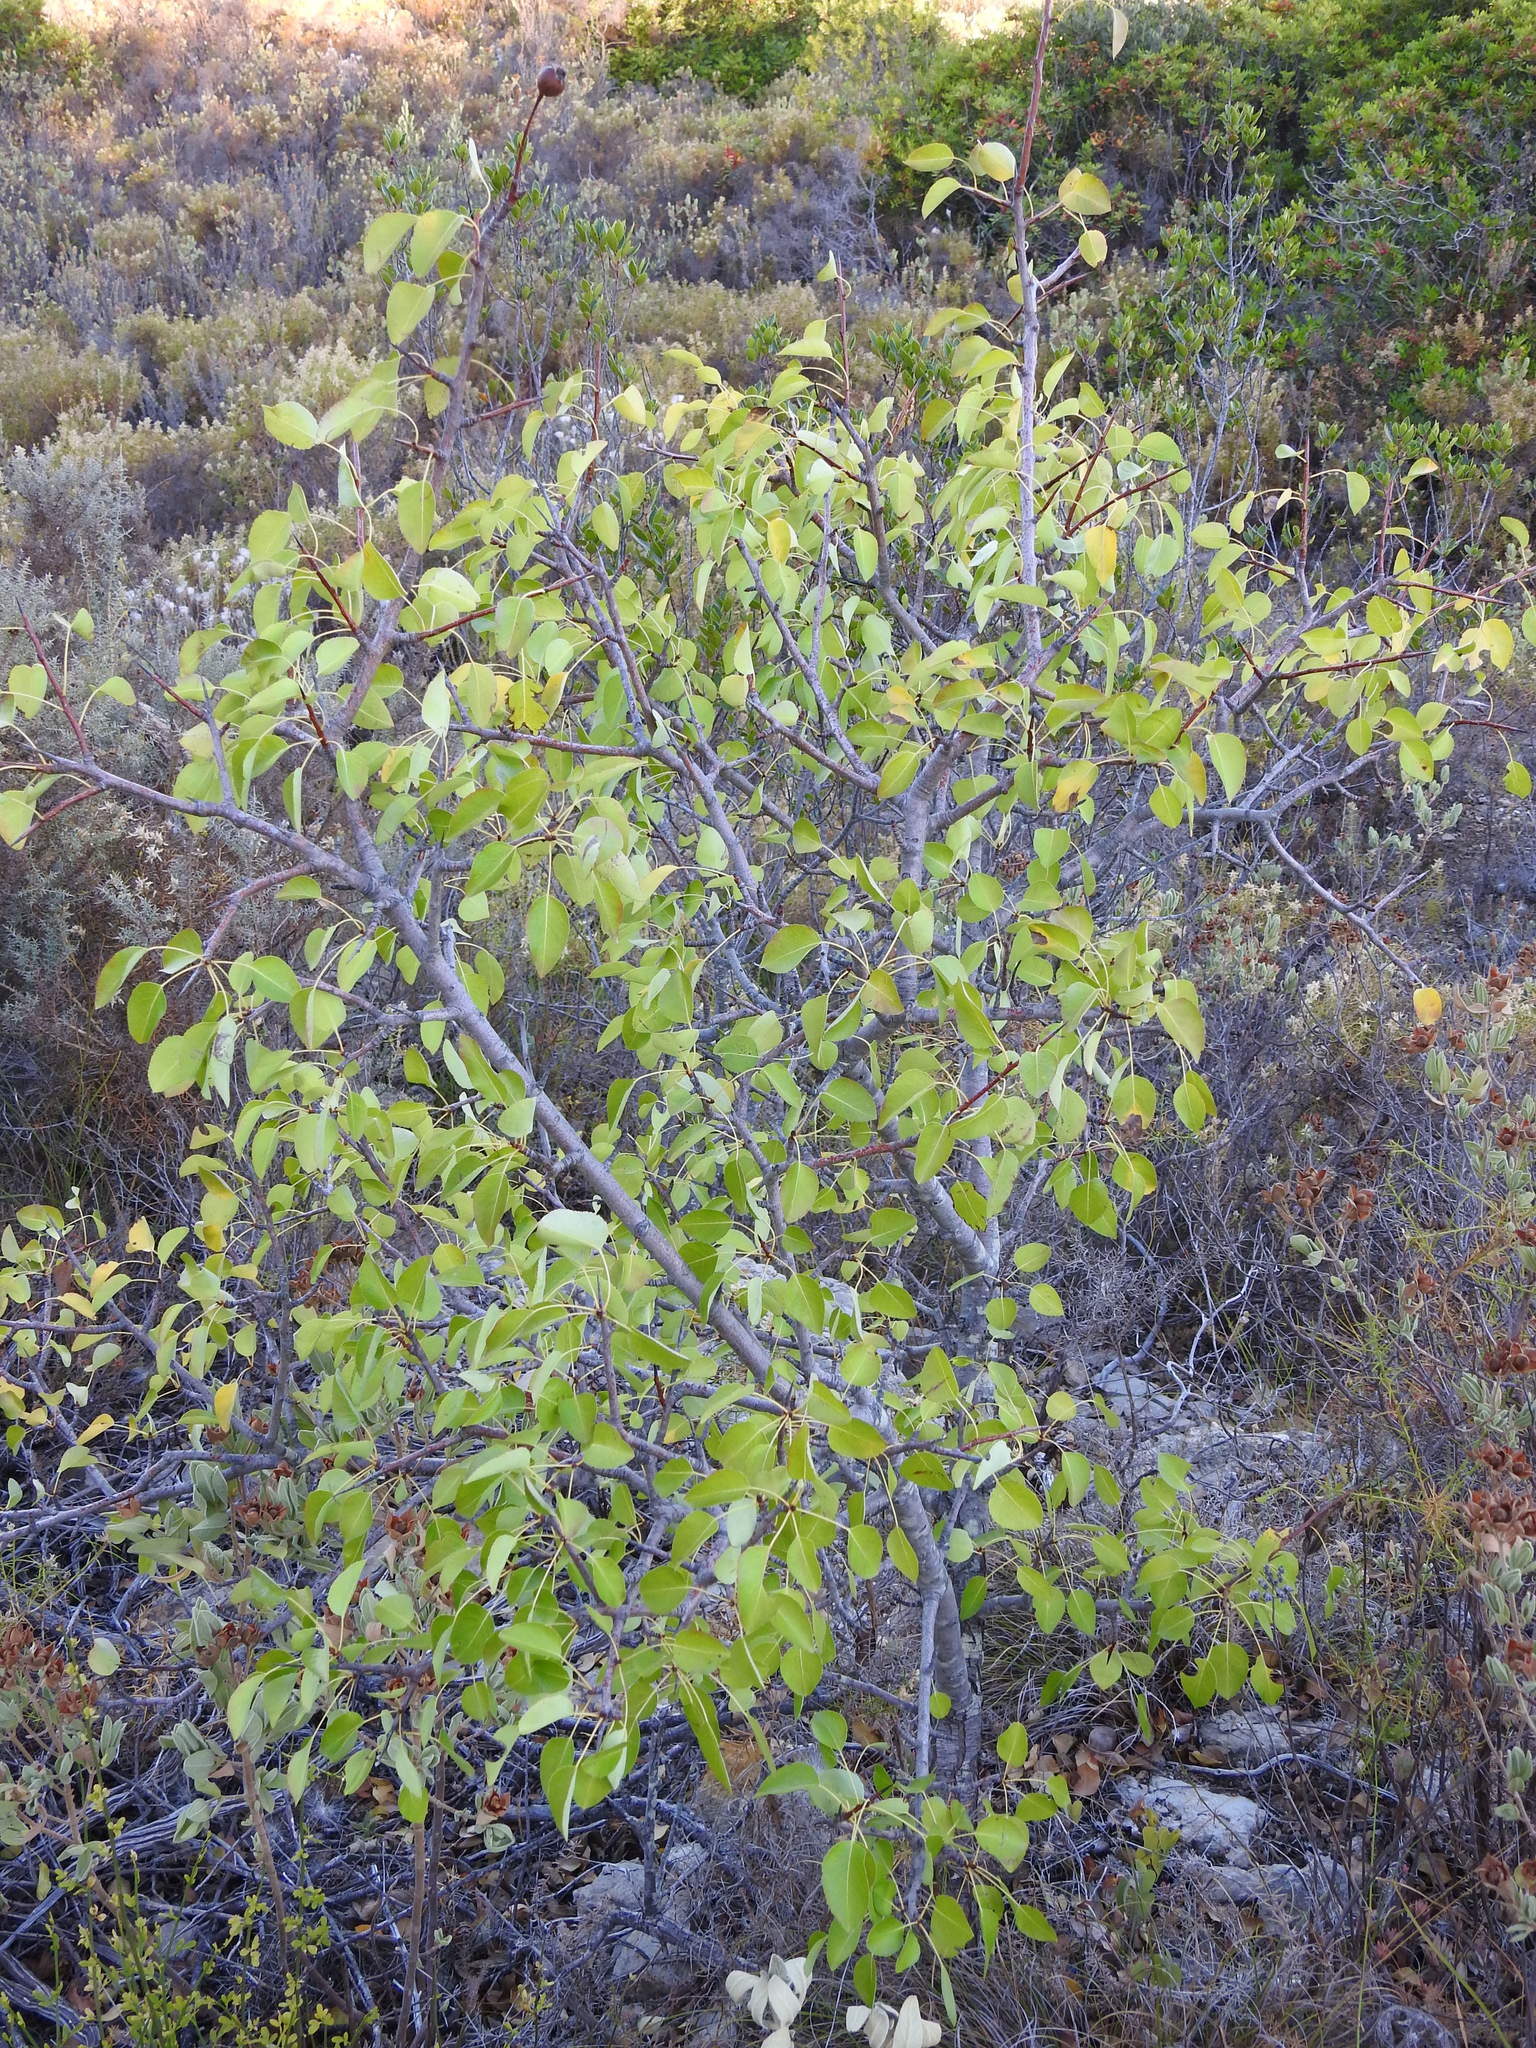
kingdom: Plantae
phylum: Tracheophyta
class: Magnoliopsida
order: Rosales
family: Rosaceae
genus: Pyrus
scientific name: Pyrus bourgaeana
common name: Iberian pear
